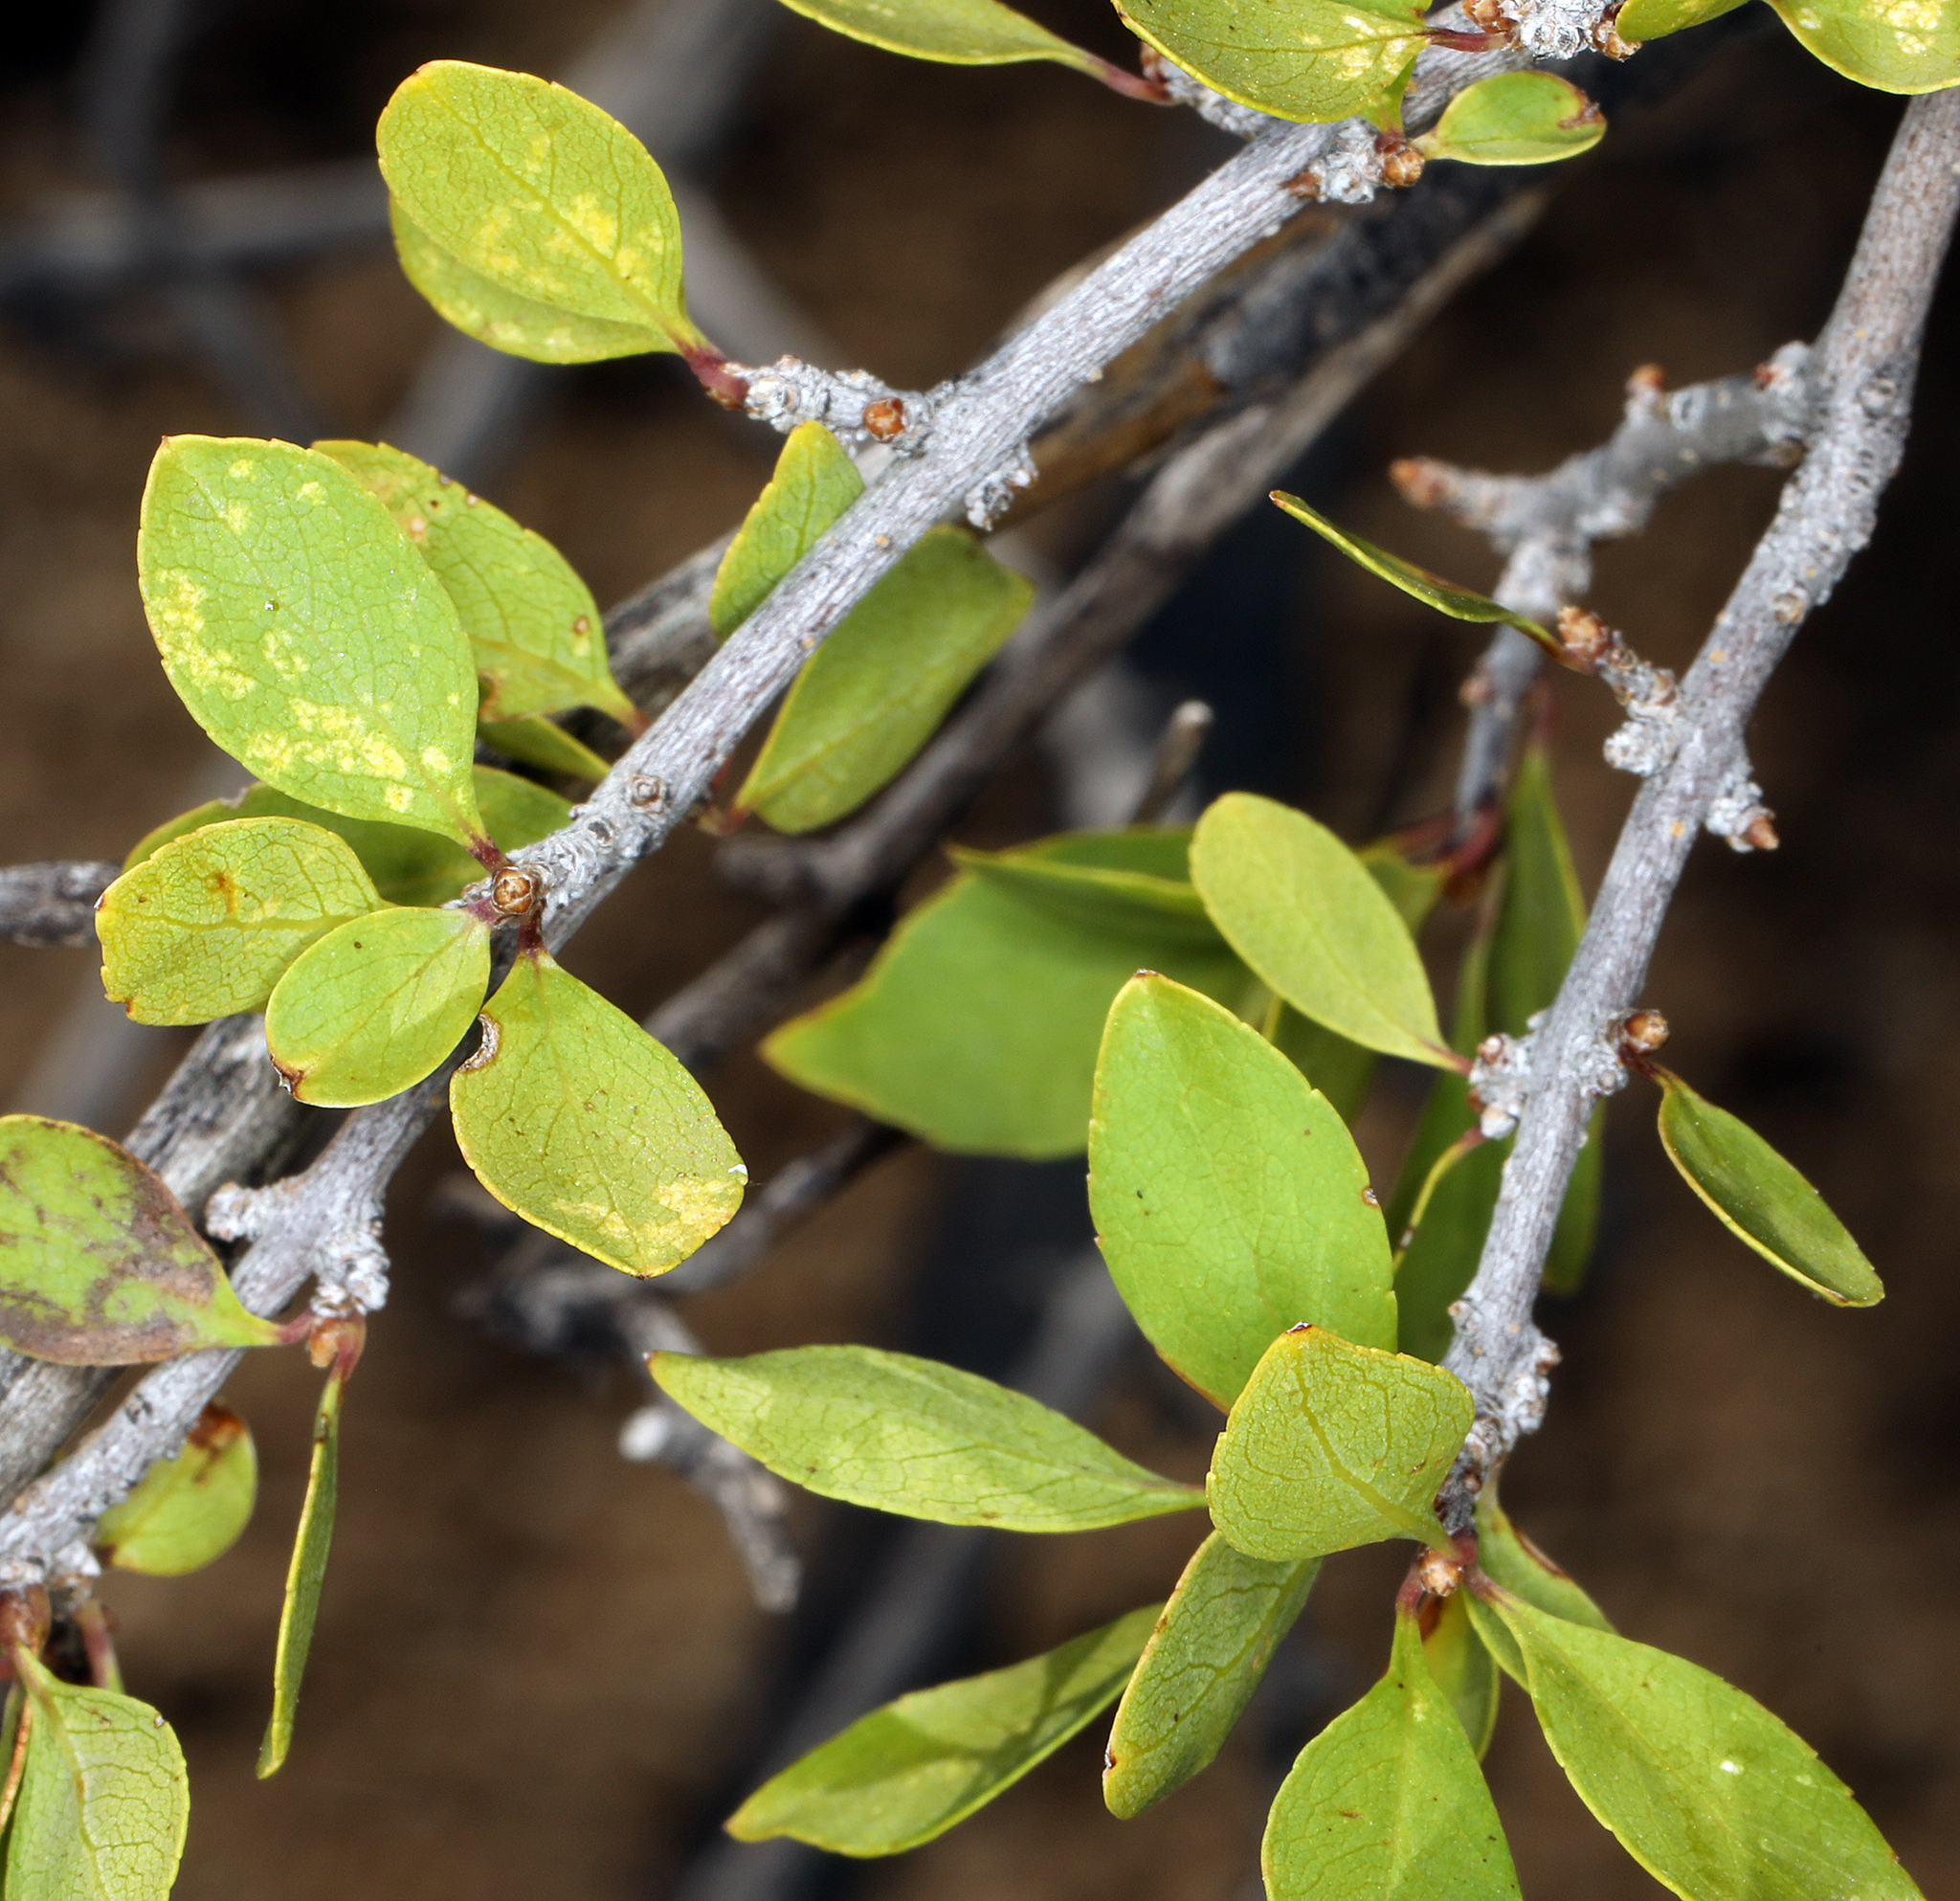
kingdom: Plantae
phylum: Tracheophyta
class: Magnoliopsida
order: Lamiales
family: Oleaceae
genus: Forestiera
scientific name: Forestiera pubescens
